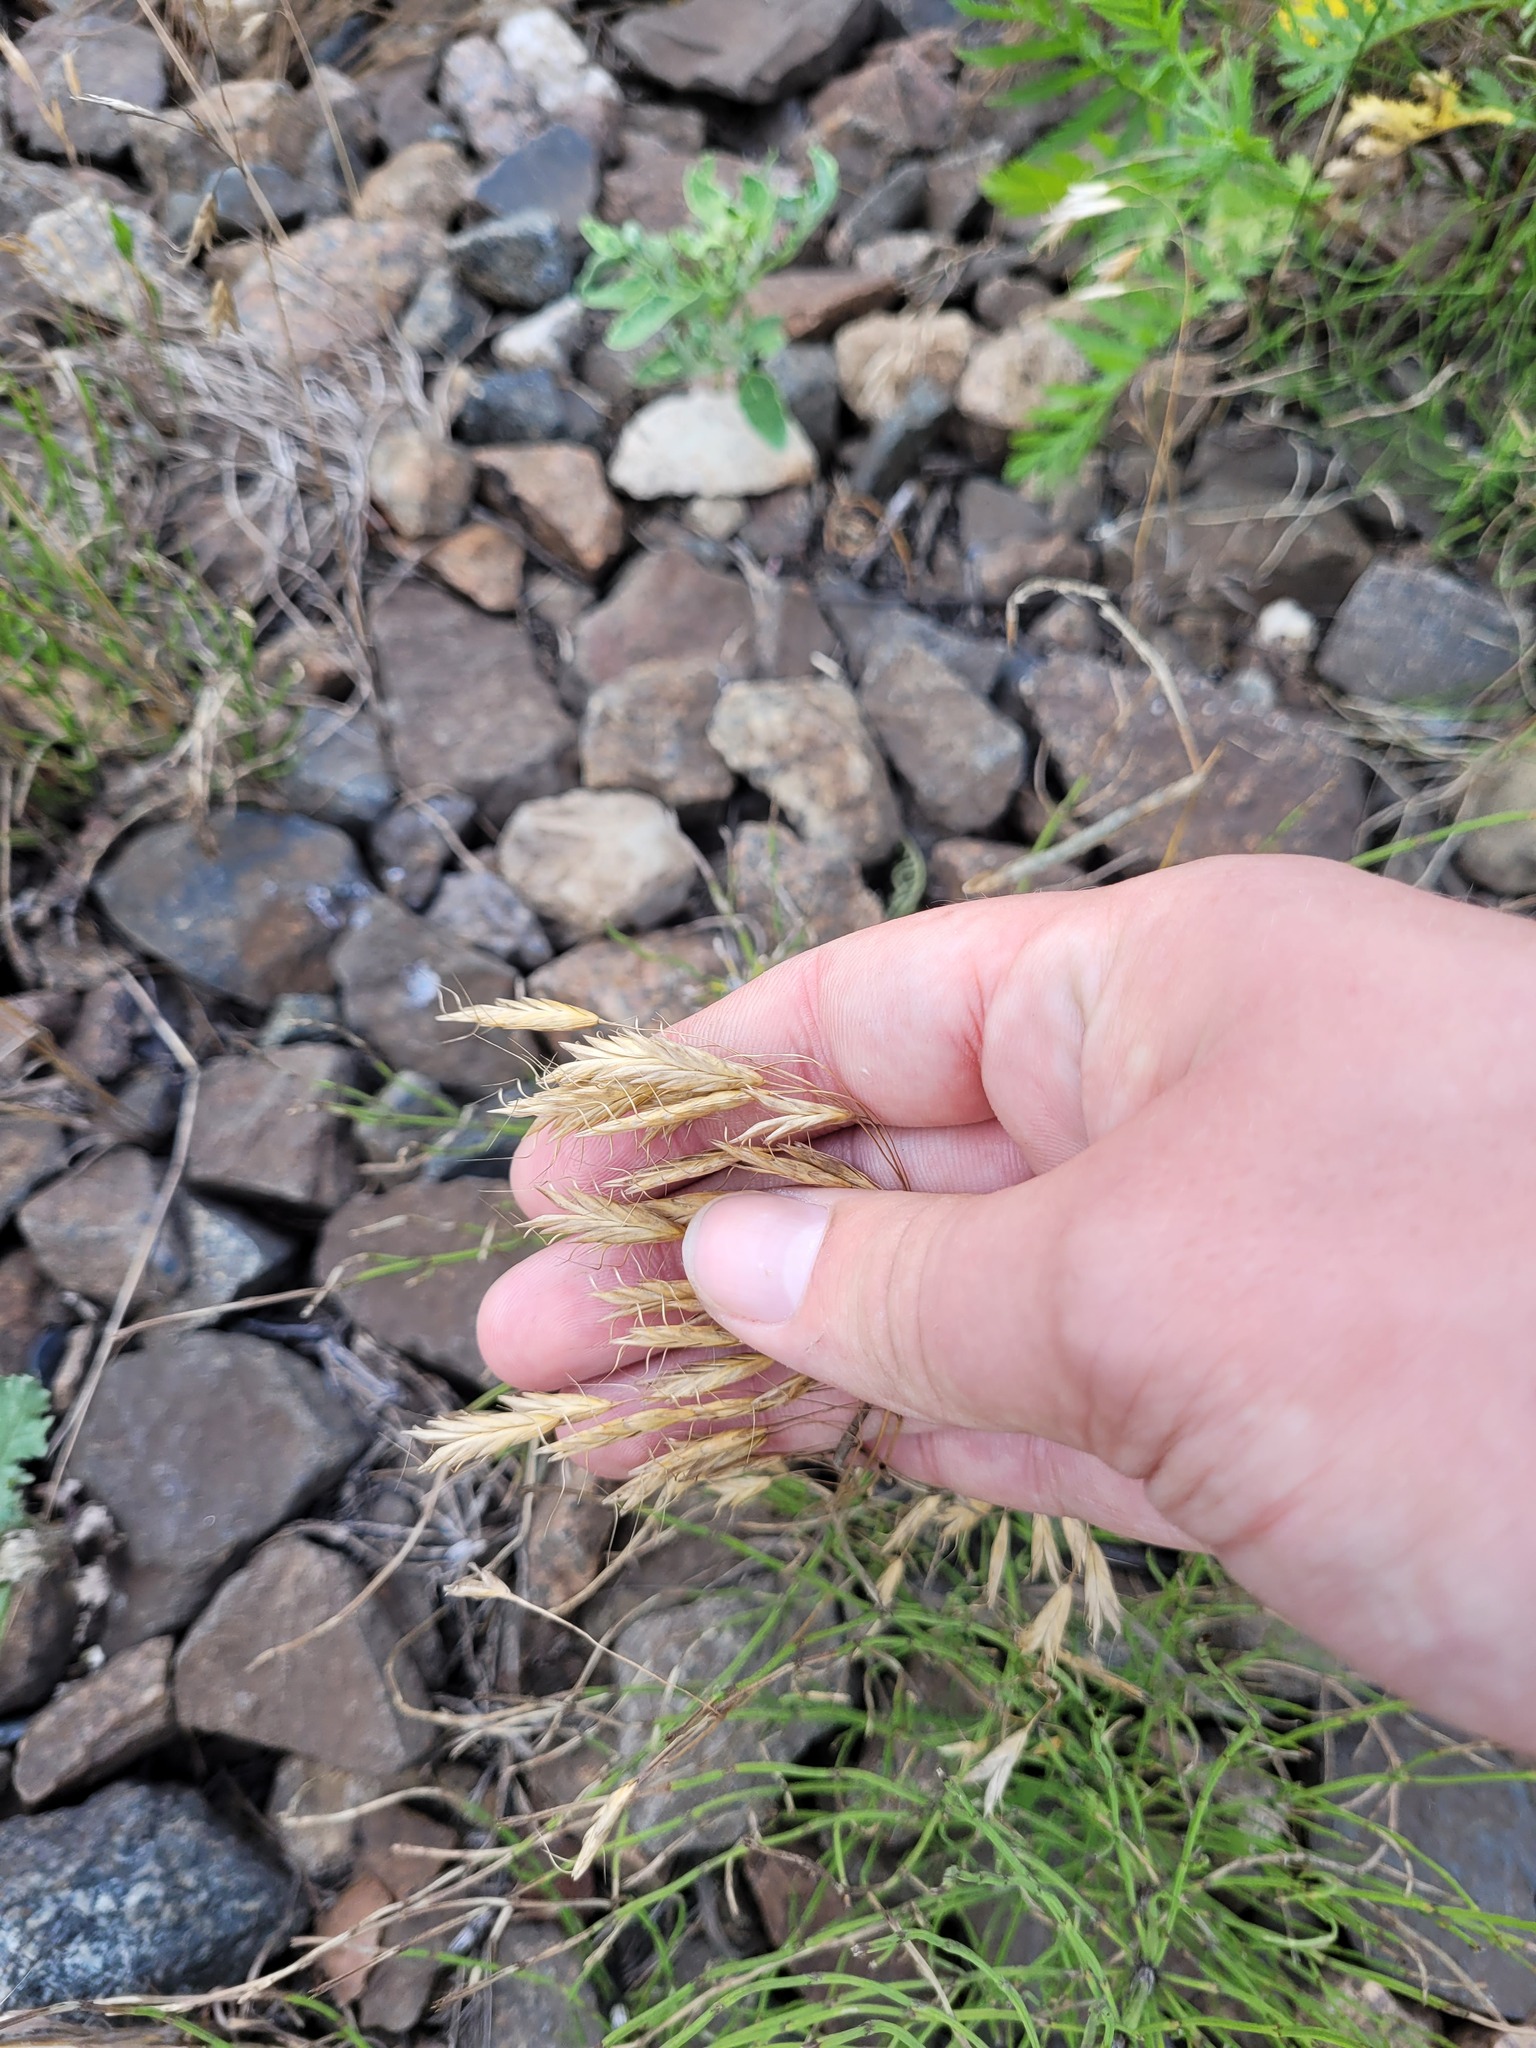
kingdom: Plantae
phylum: Tracheophyta
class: Liliopsida
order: Poales
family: Poaceae
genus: Bromus
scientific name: Bromus japonicus
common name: Japanese brome
